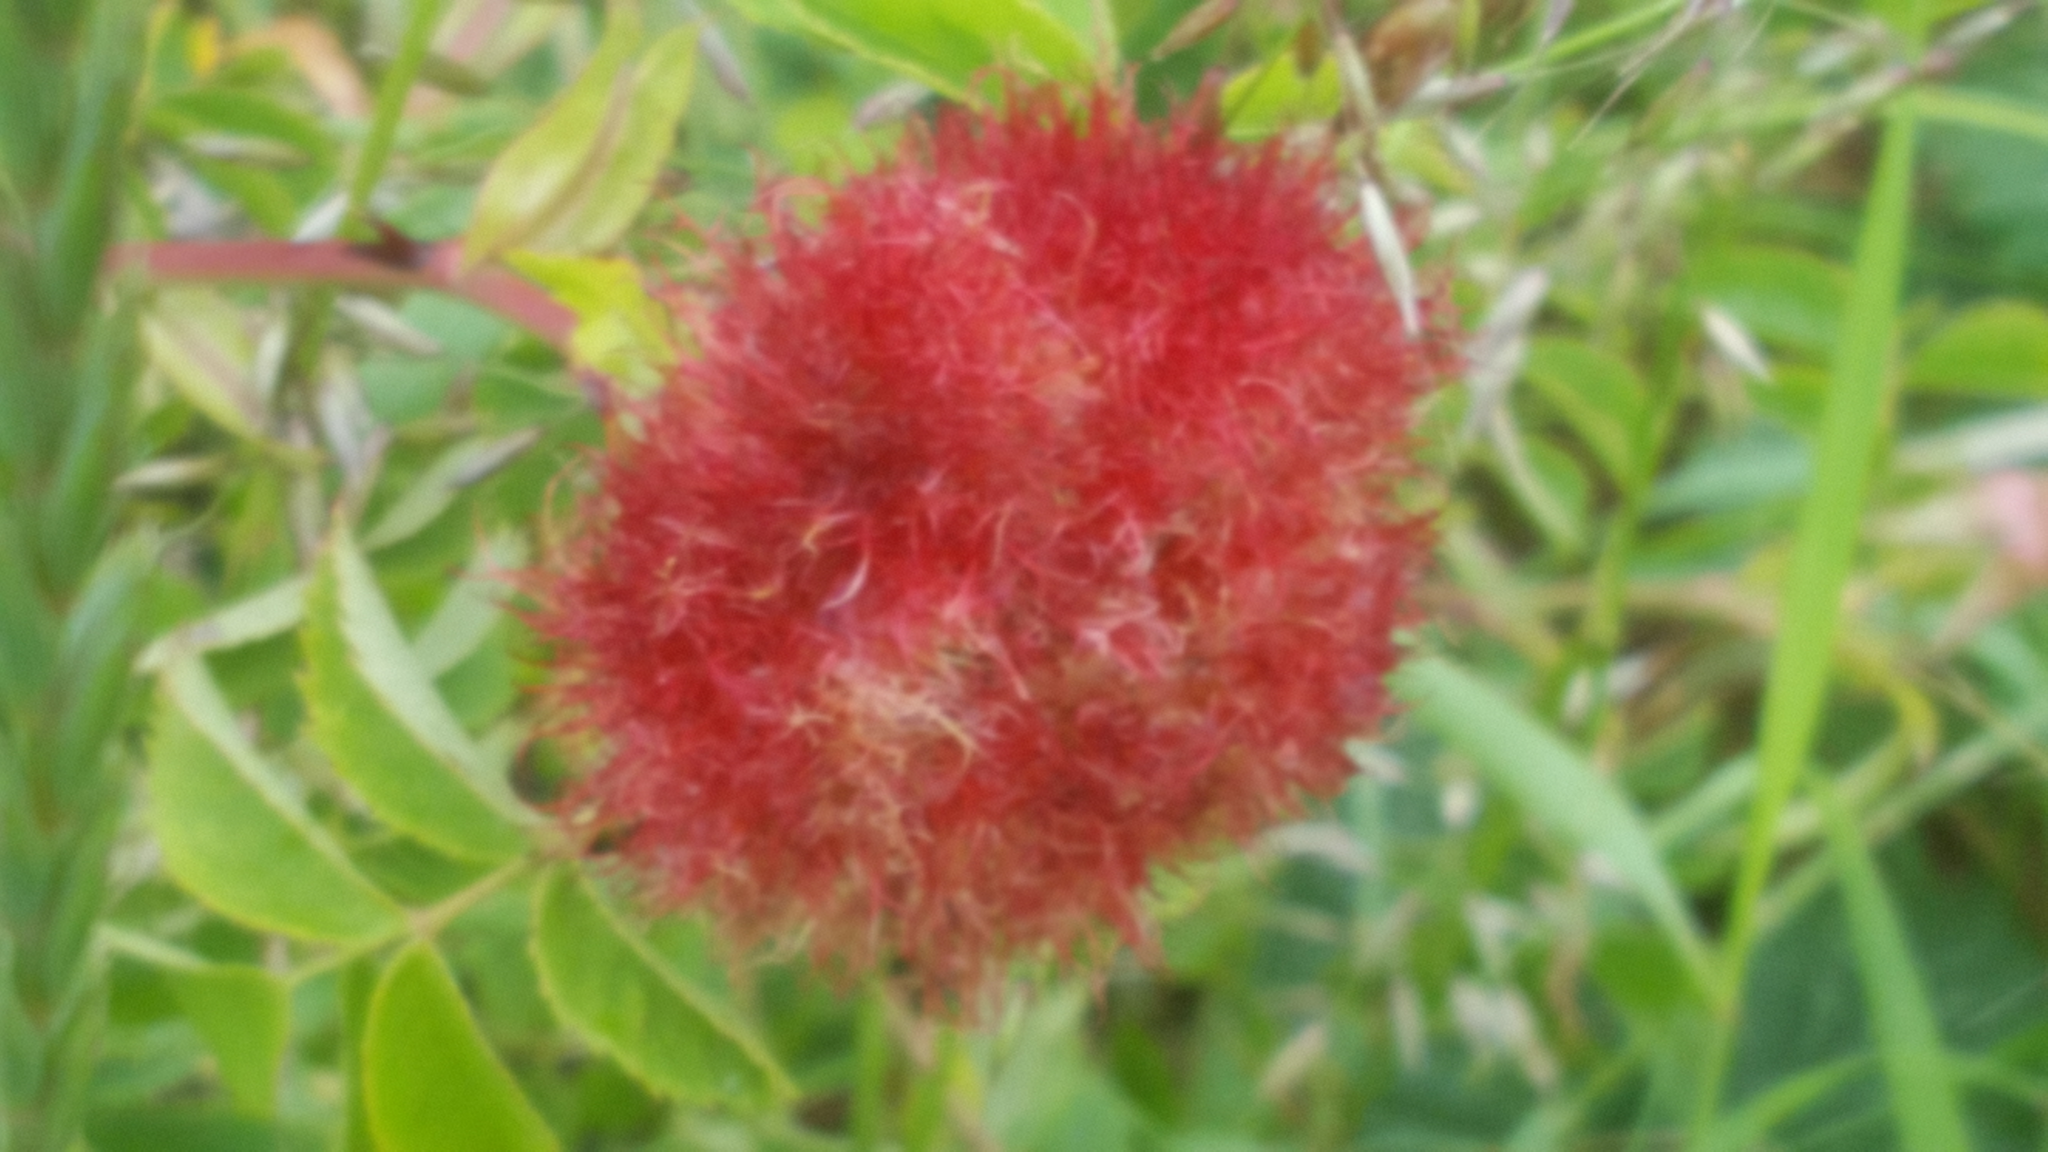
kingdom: Animalia
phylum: Arthropoda
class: Insecta
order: Hymenoptera
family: Cynipidae
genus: Diplolepis
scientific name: Diplolepis rosae
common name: Bedeguar gall
